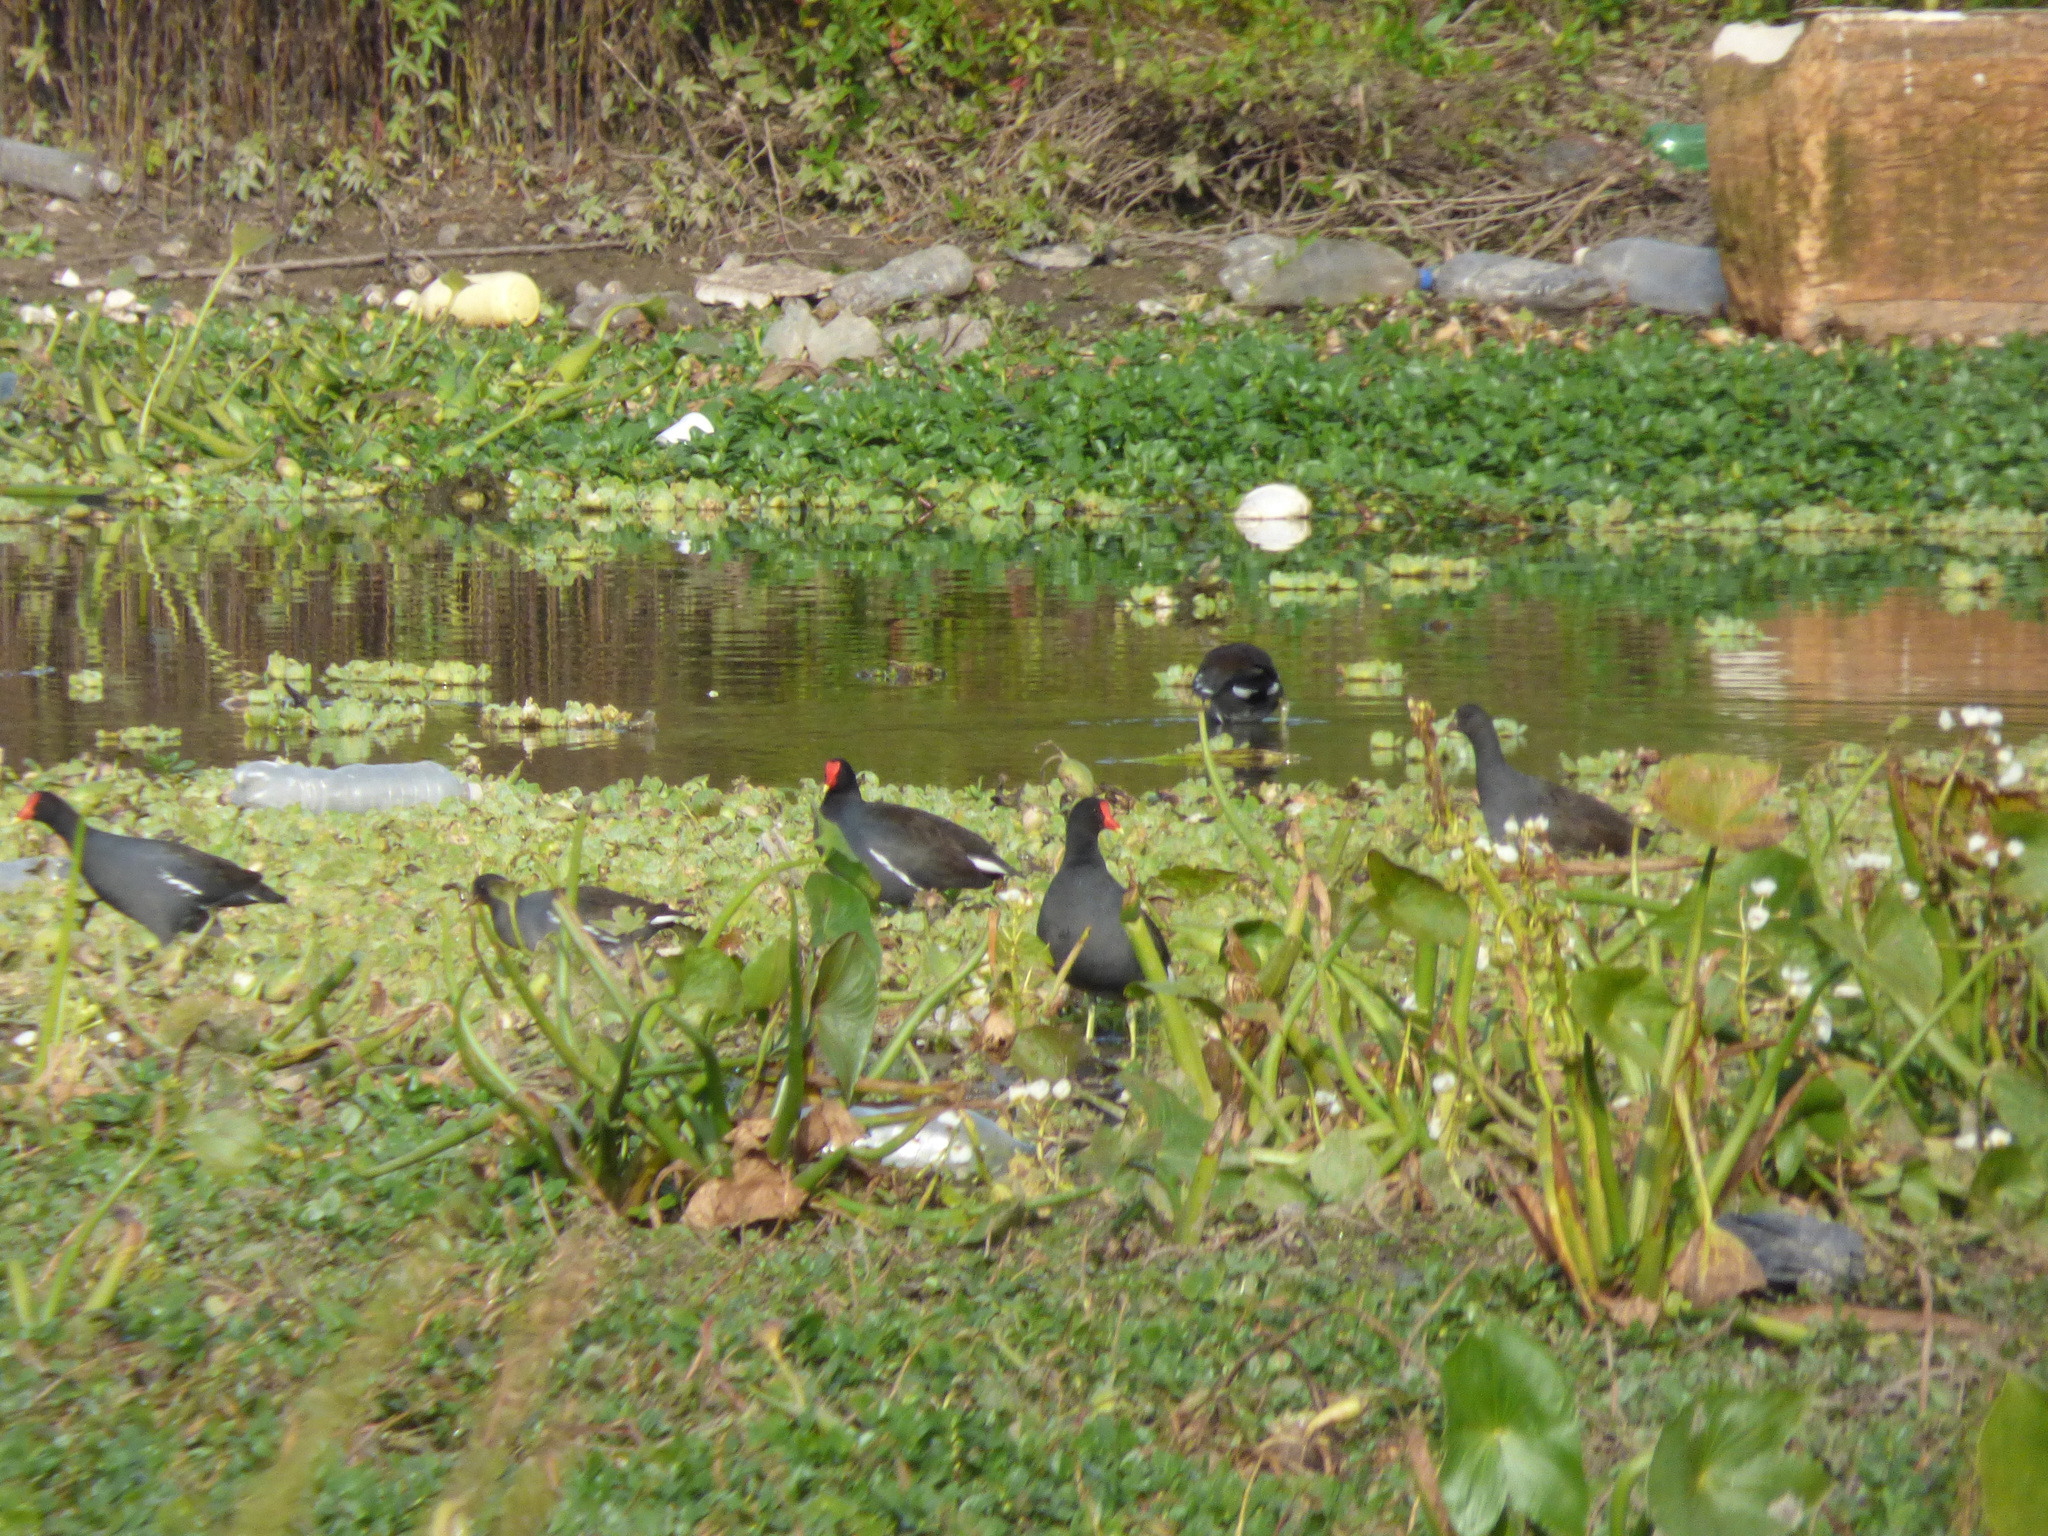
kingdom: Animalia
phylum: Chordata
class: Aves
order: Gruiformes
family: Rallidae
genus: Gallinula
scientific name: Gallinula chloropus
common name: Common moorhen
